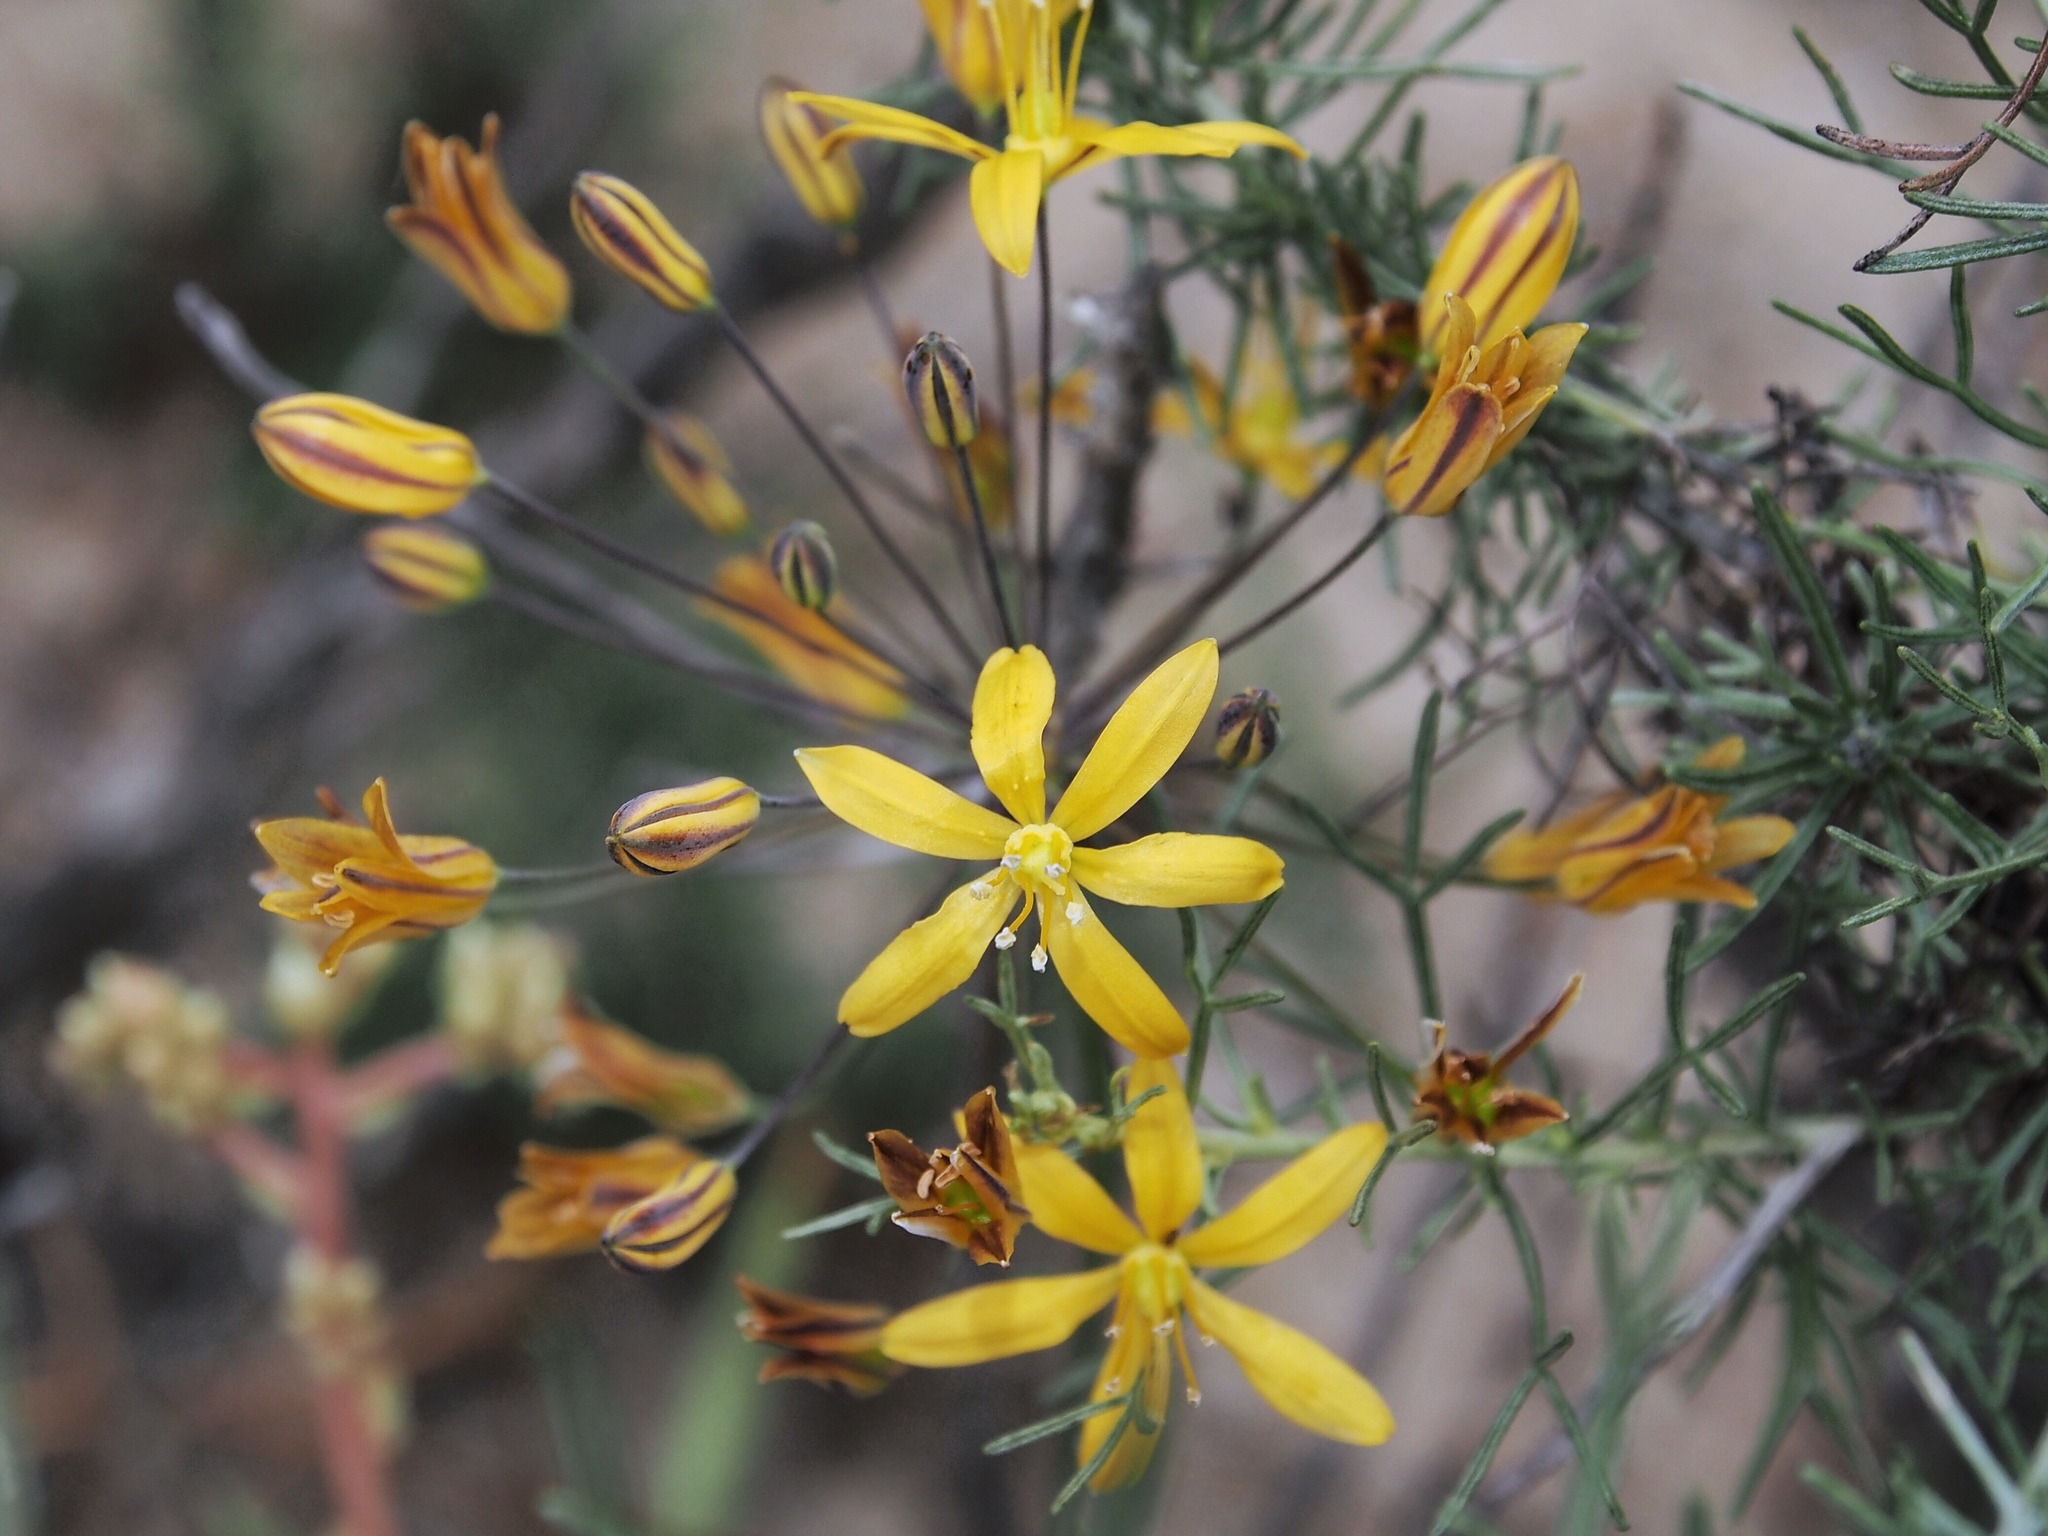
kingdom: Plantae
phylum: Tracheophyta
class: Liliopsida
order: Asparagales
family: Asparagaceae
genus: Bloomeria
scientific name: Bloomeria crocea
